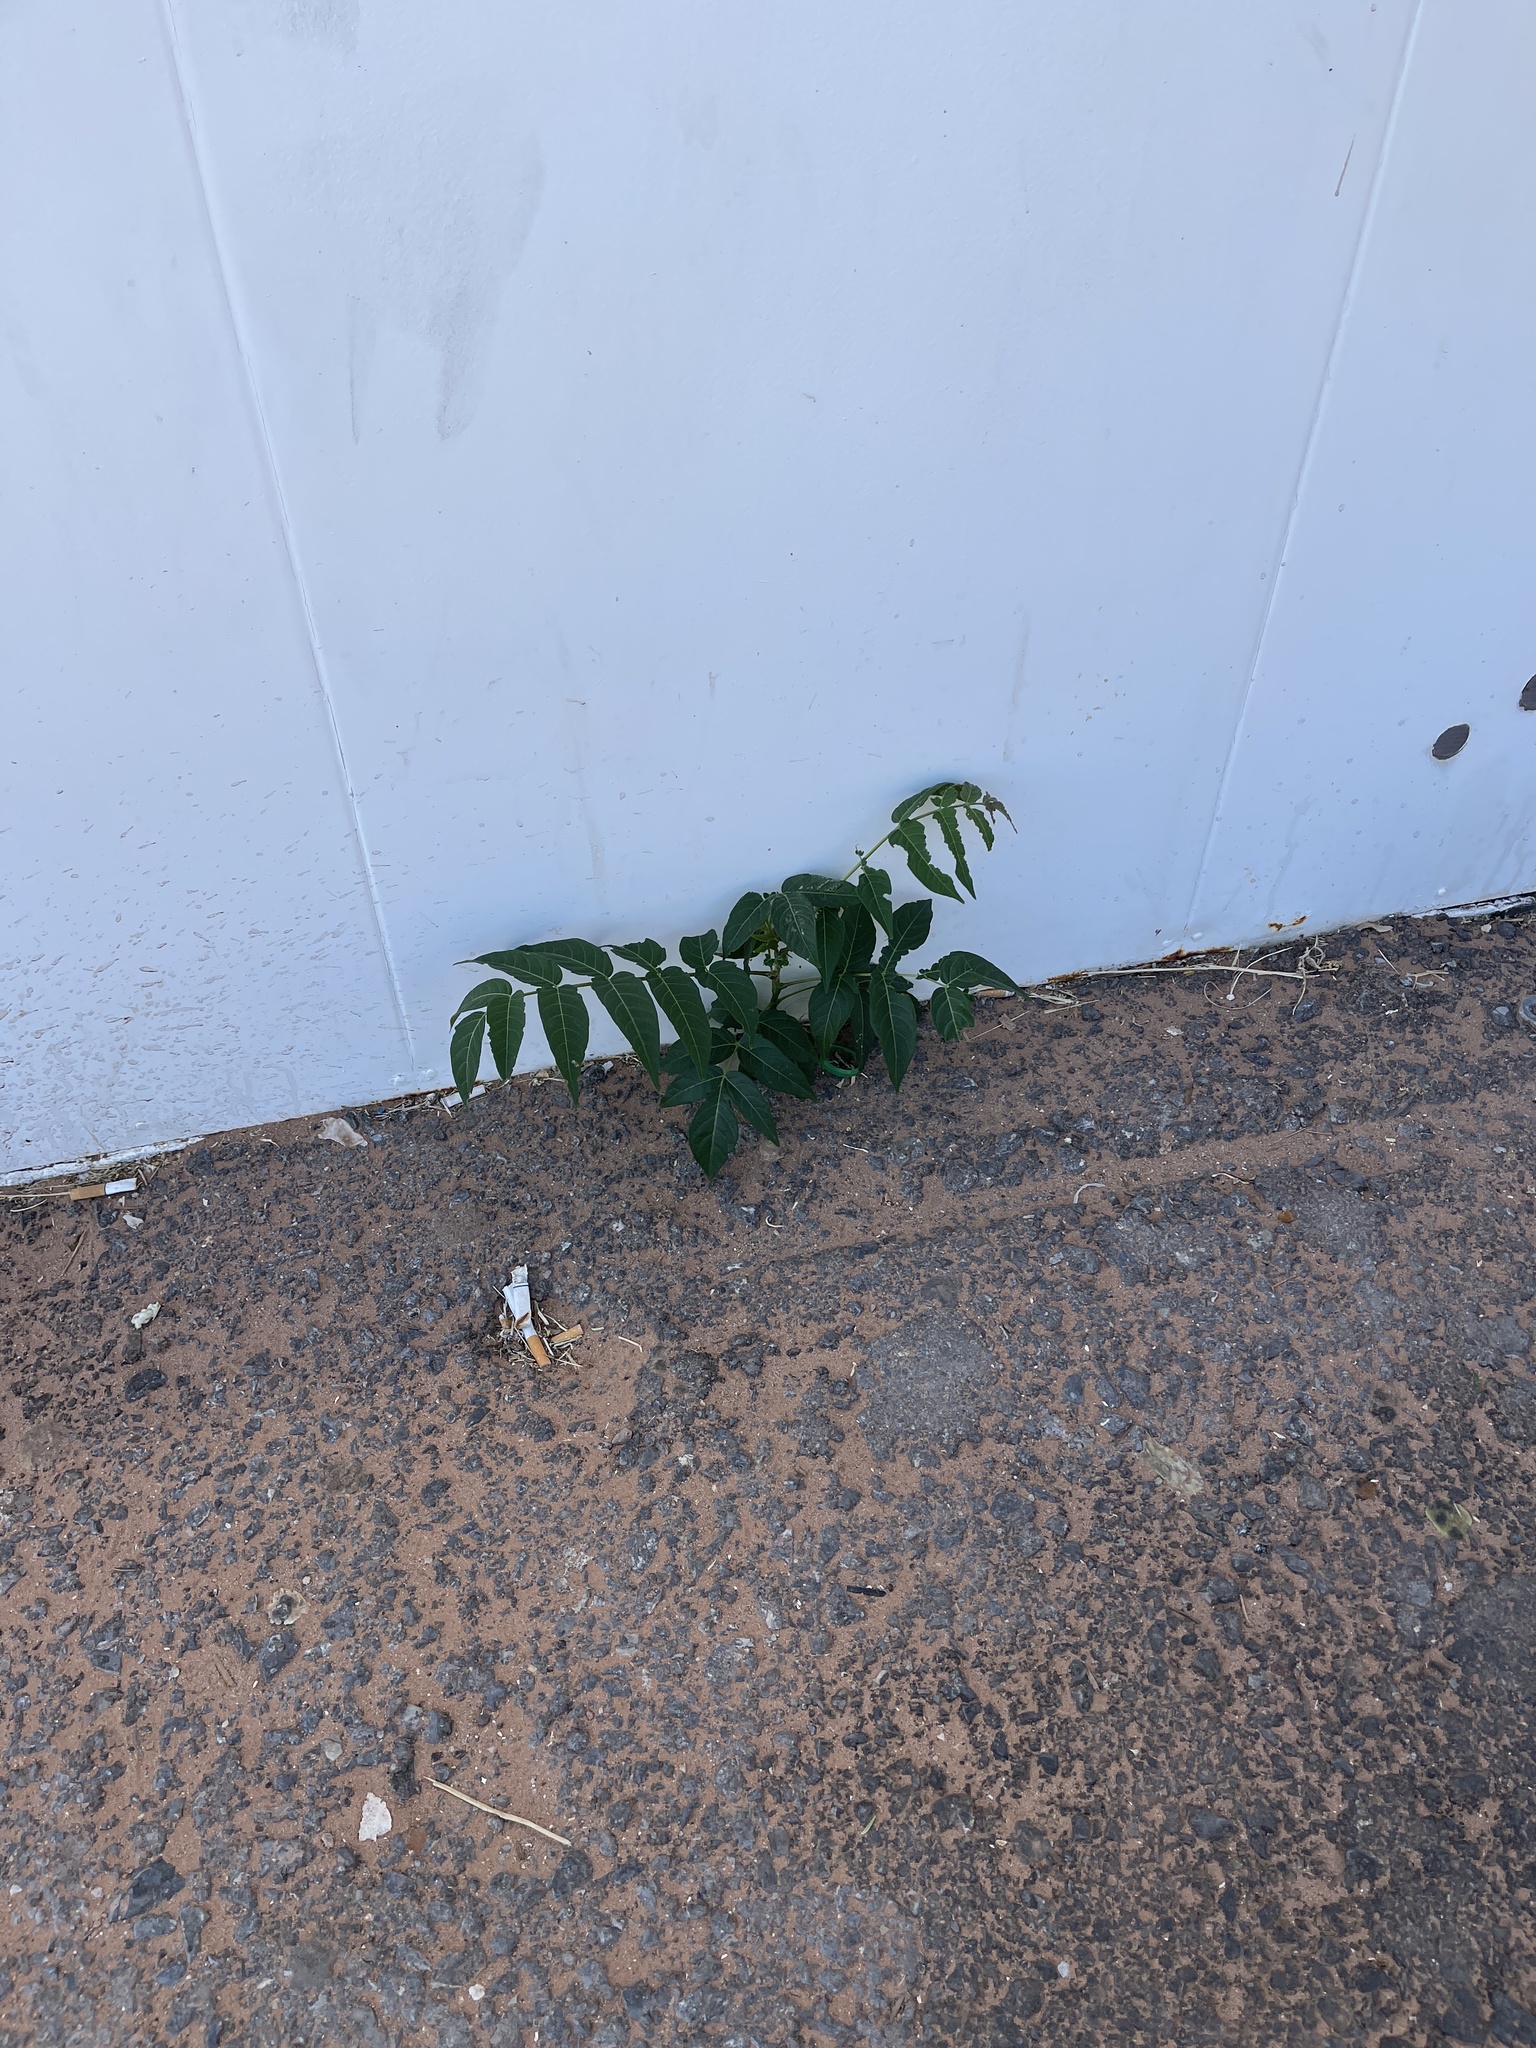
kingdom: Plantae
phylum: Tracheophyta
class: Magnoliopsida
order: Sapindales
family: Simaroubaceae
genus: Ailanthus
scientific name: Ailanthus altissima
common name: Tree-of-heaven
